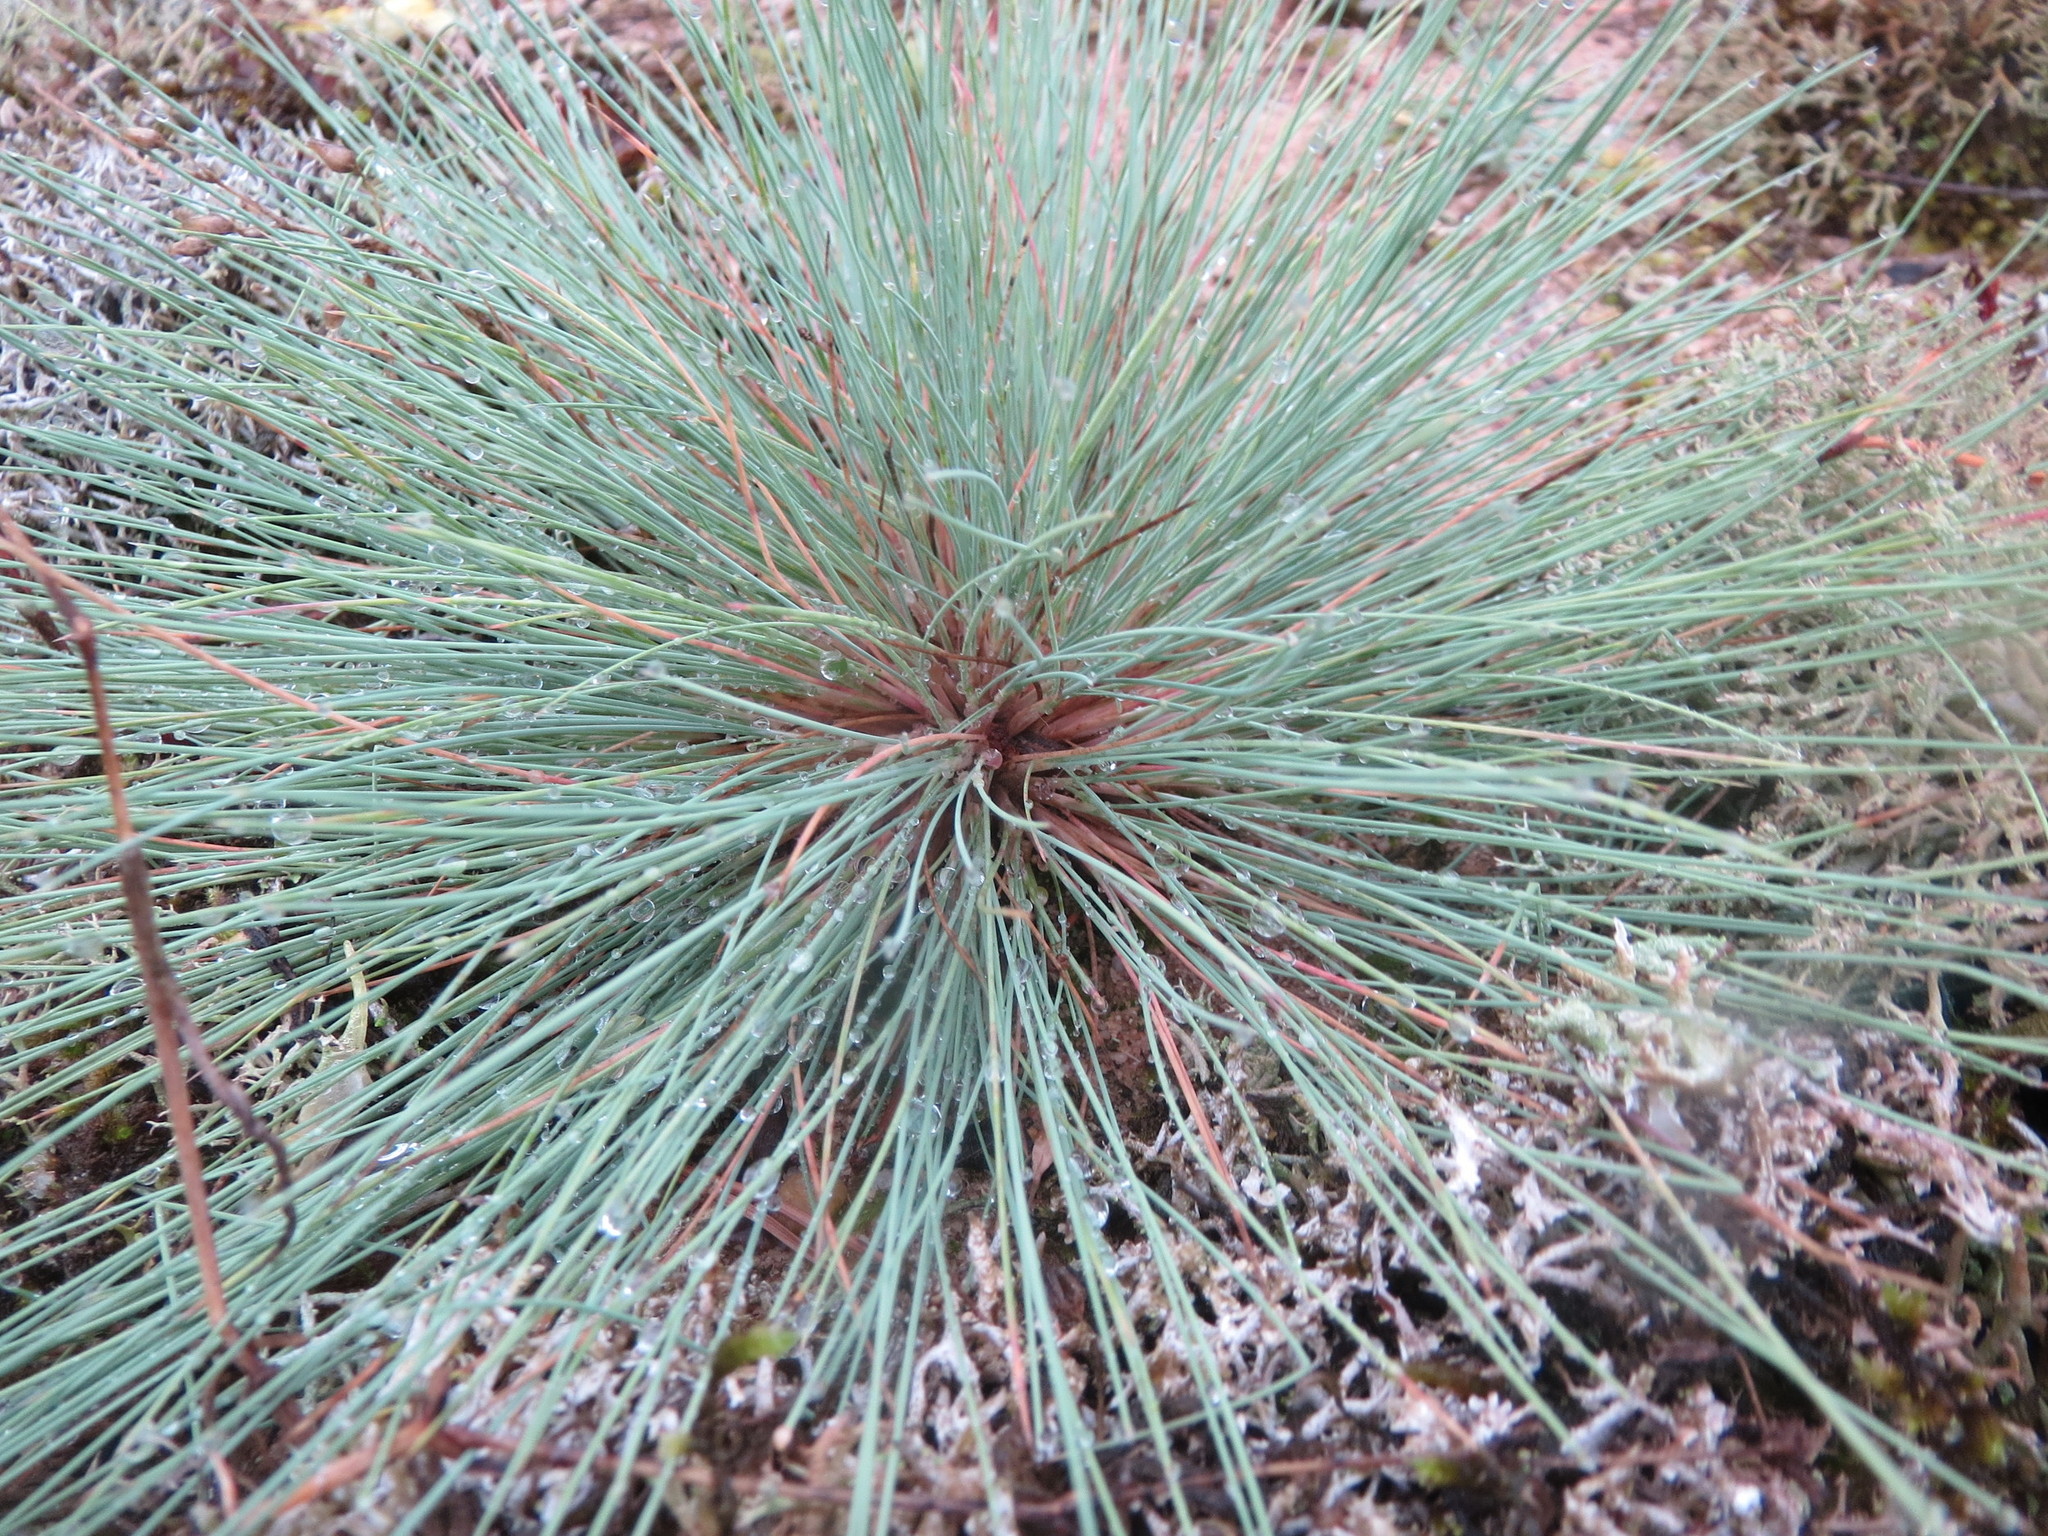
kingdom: Plantae
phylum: Tracheophyta
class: Liliopsida
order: Poales
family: Poaceae
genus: Corynephorus
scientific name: Corynephorus canescens
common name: Grey hair-grass
